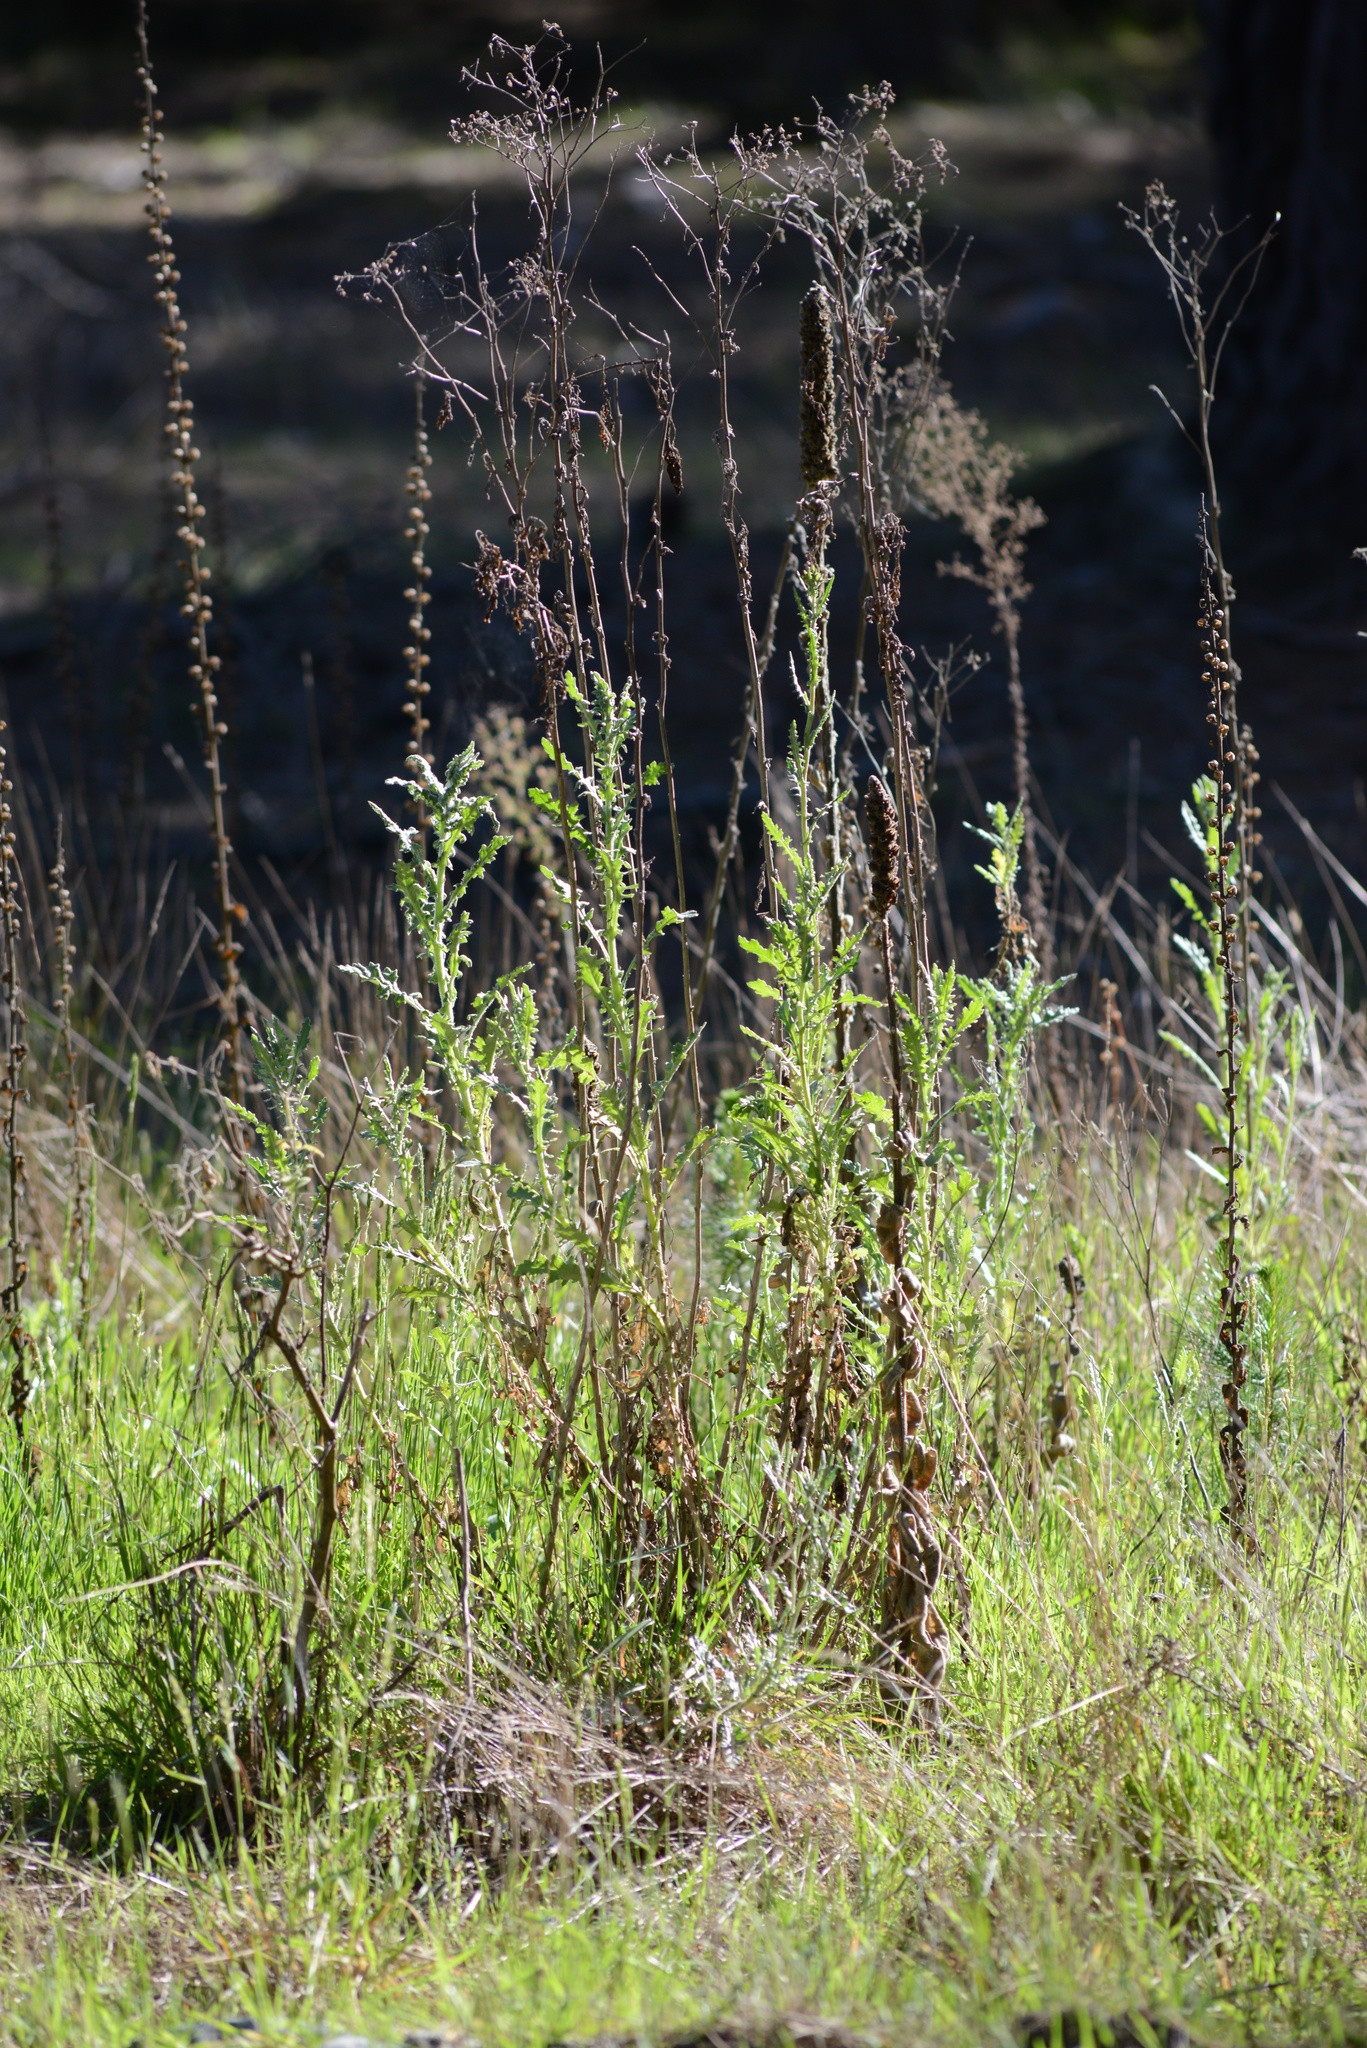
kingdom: Plantae
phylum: Tracheophyta
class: Magnoliopsida
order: Asterales
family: Asteraceae
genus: Senecio
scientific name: Senecio glomeratus
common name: Cutleaf burnweed
